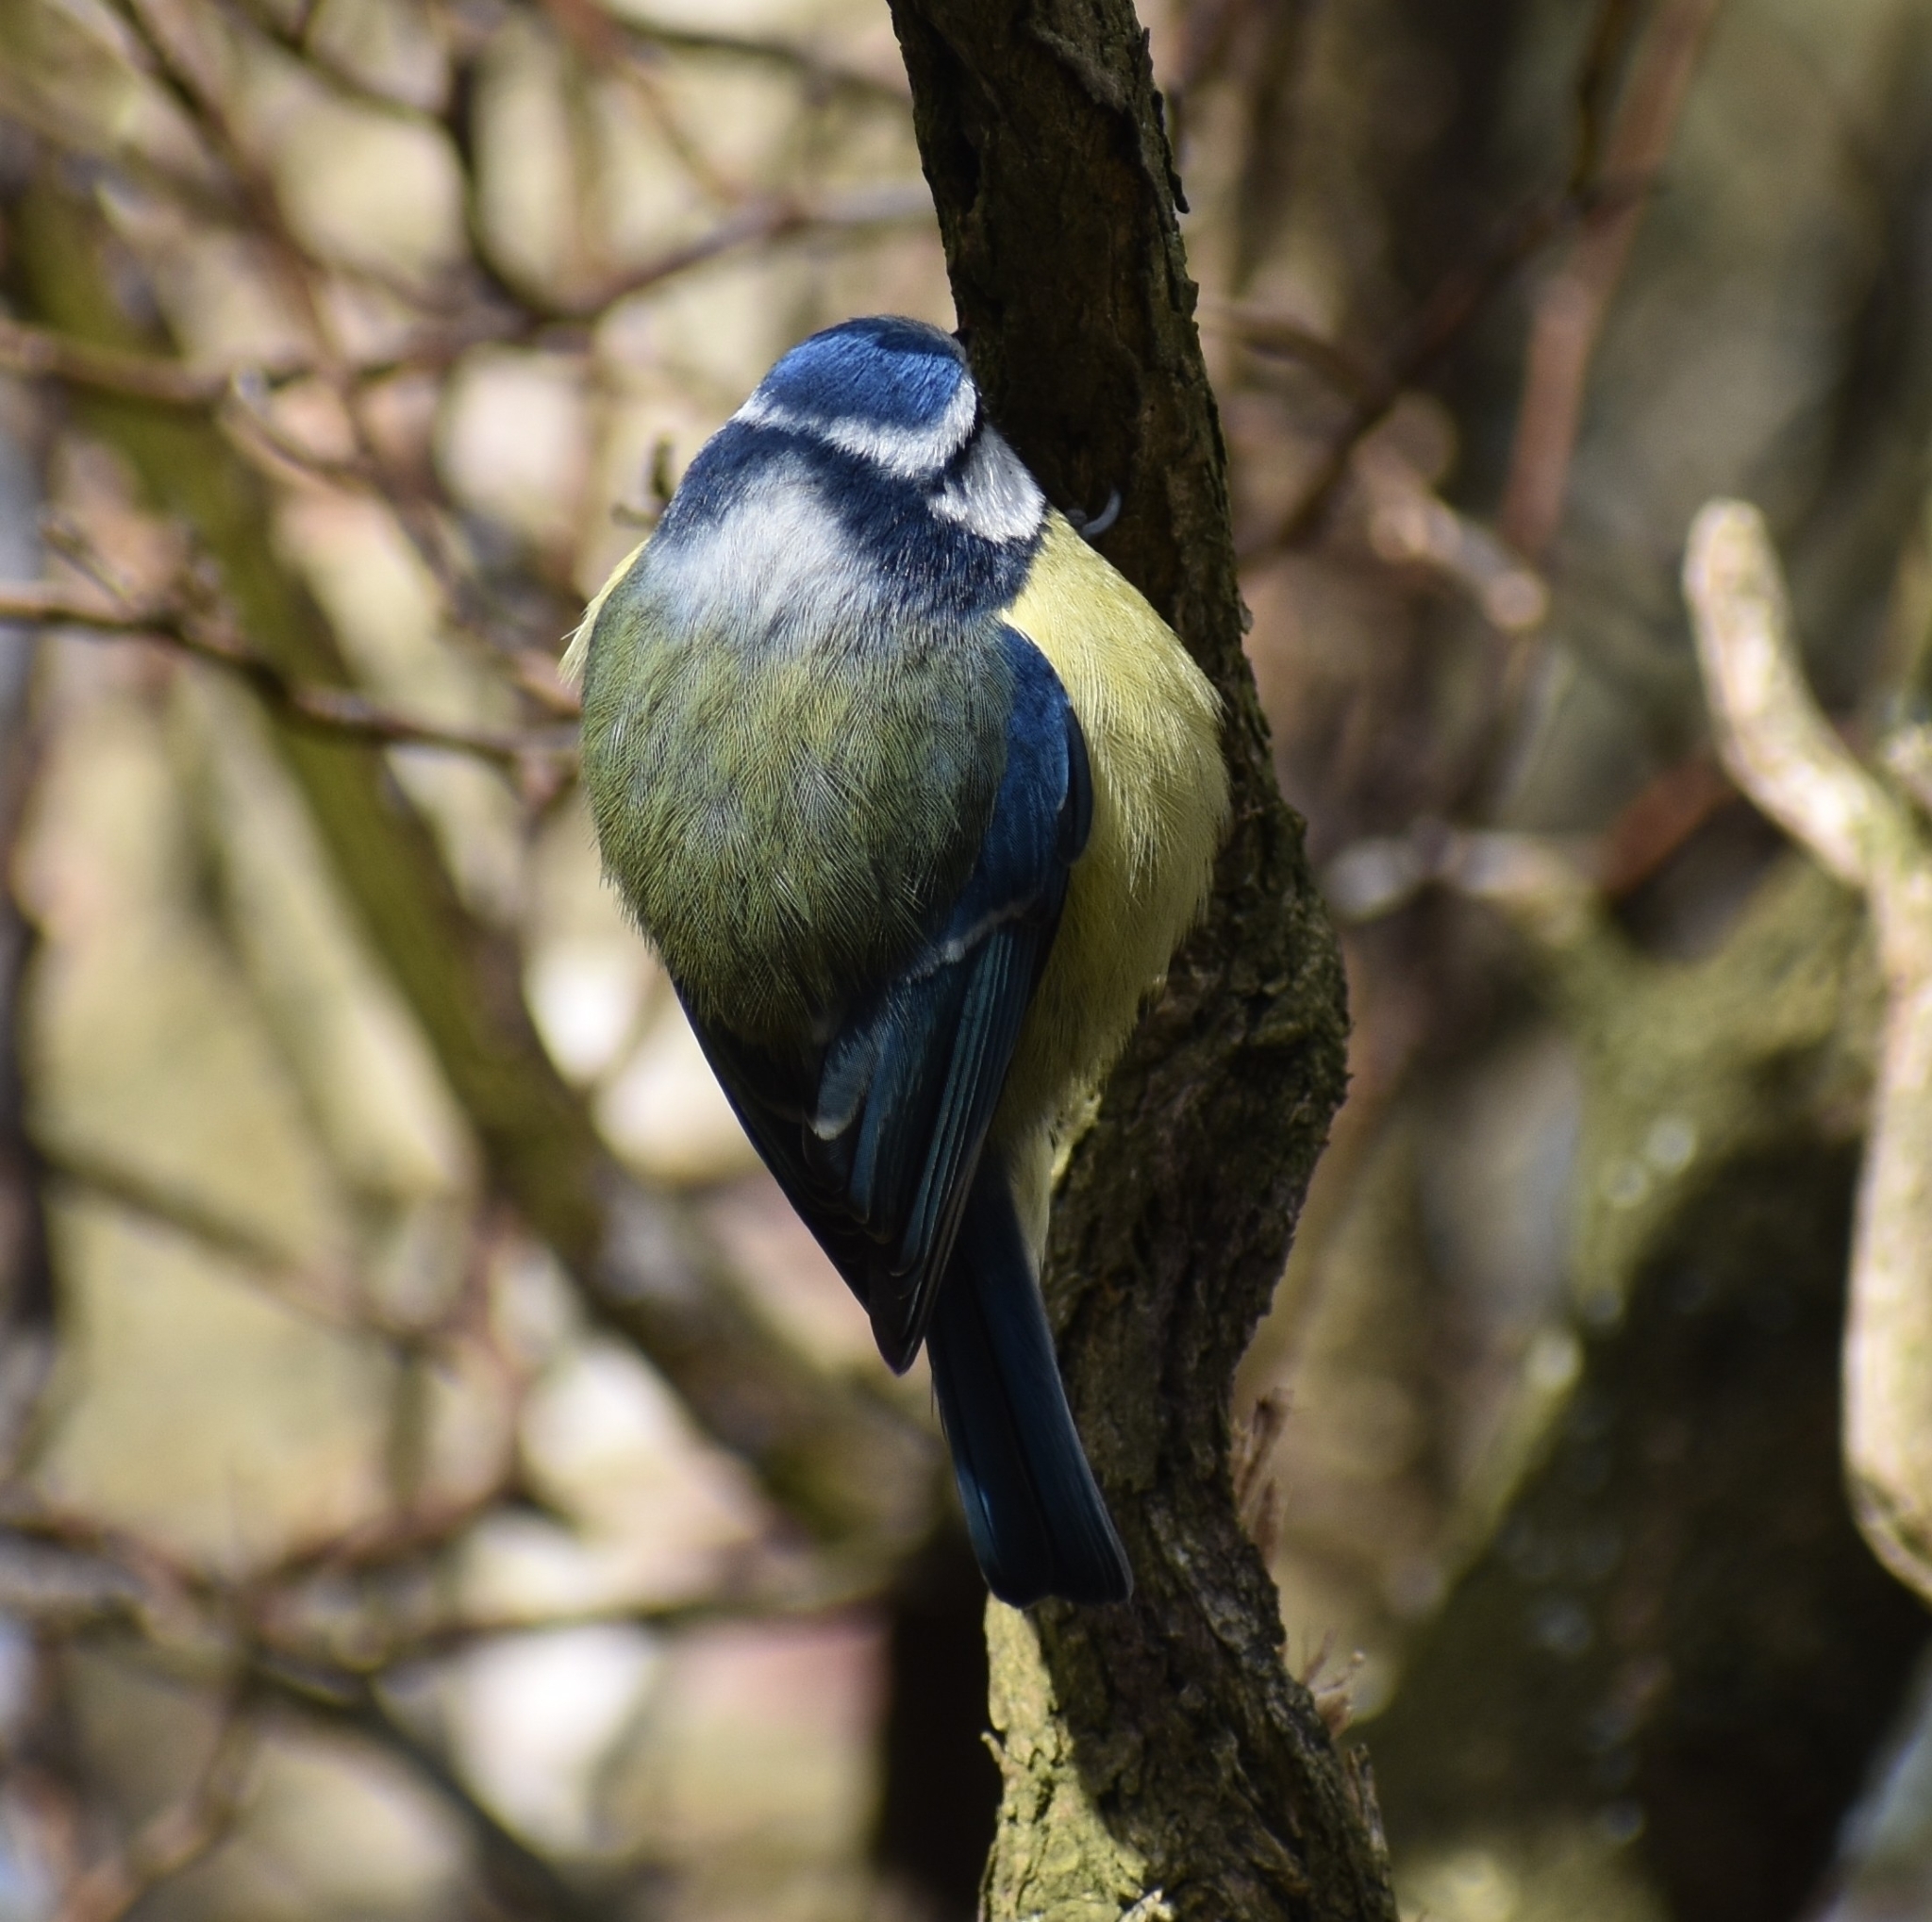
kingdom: Animalia
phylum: Chordata
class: Aves
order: Passeriformes
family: Paridae
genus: Cyanistes
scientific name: Cyanistes caeruleus
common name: Eurasian blue tit
